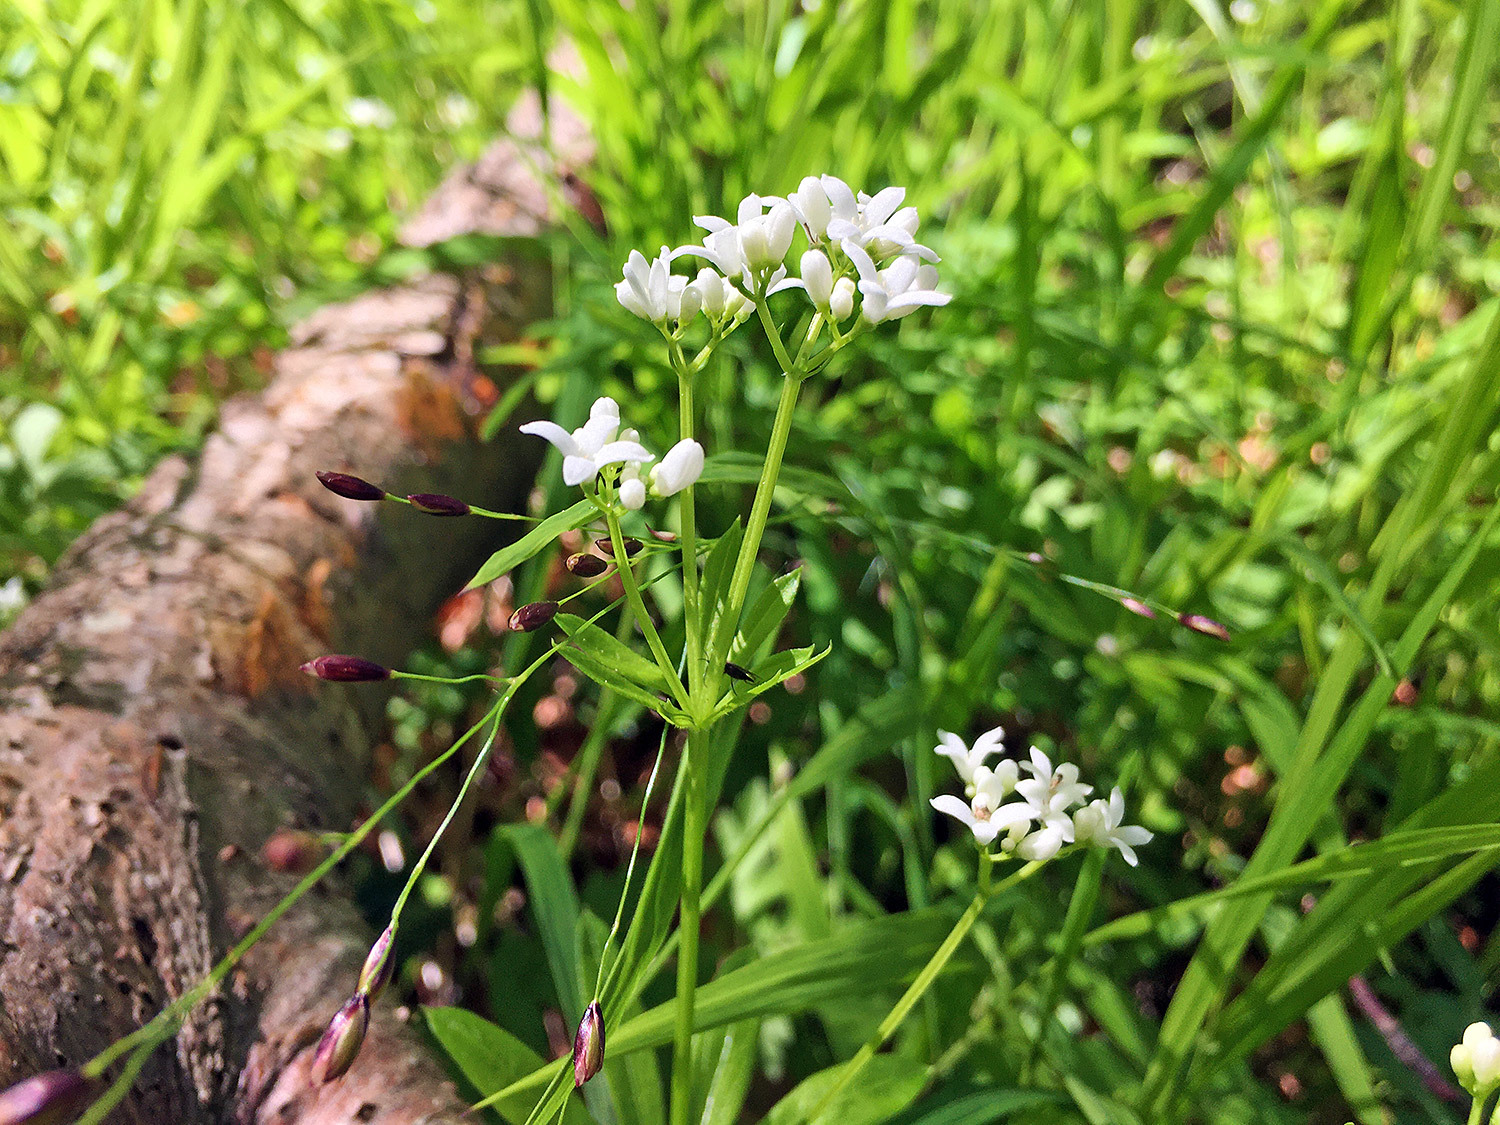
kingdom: Plantae
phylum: Tracheophyta
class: Magnoliopsida
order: Gentianales
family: Rubiaceae
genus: Galium
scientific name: Galium odoratum
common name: Sweet woodruff
